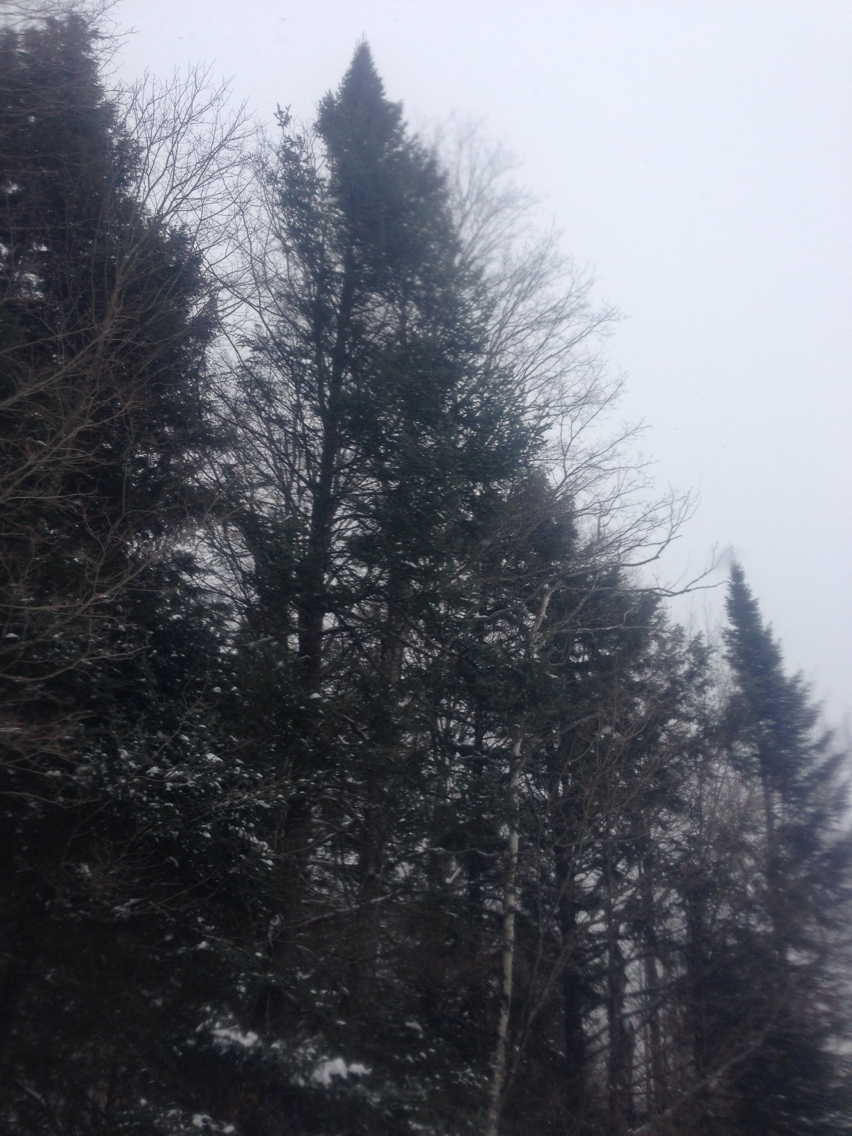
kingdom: Plantae
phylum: Tracheophyta
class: Pinopsida
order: Pinales
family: Pinaceae
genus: Abies
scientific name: Abies balsamea
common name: Balsam fir
